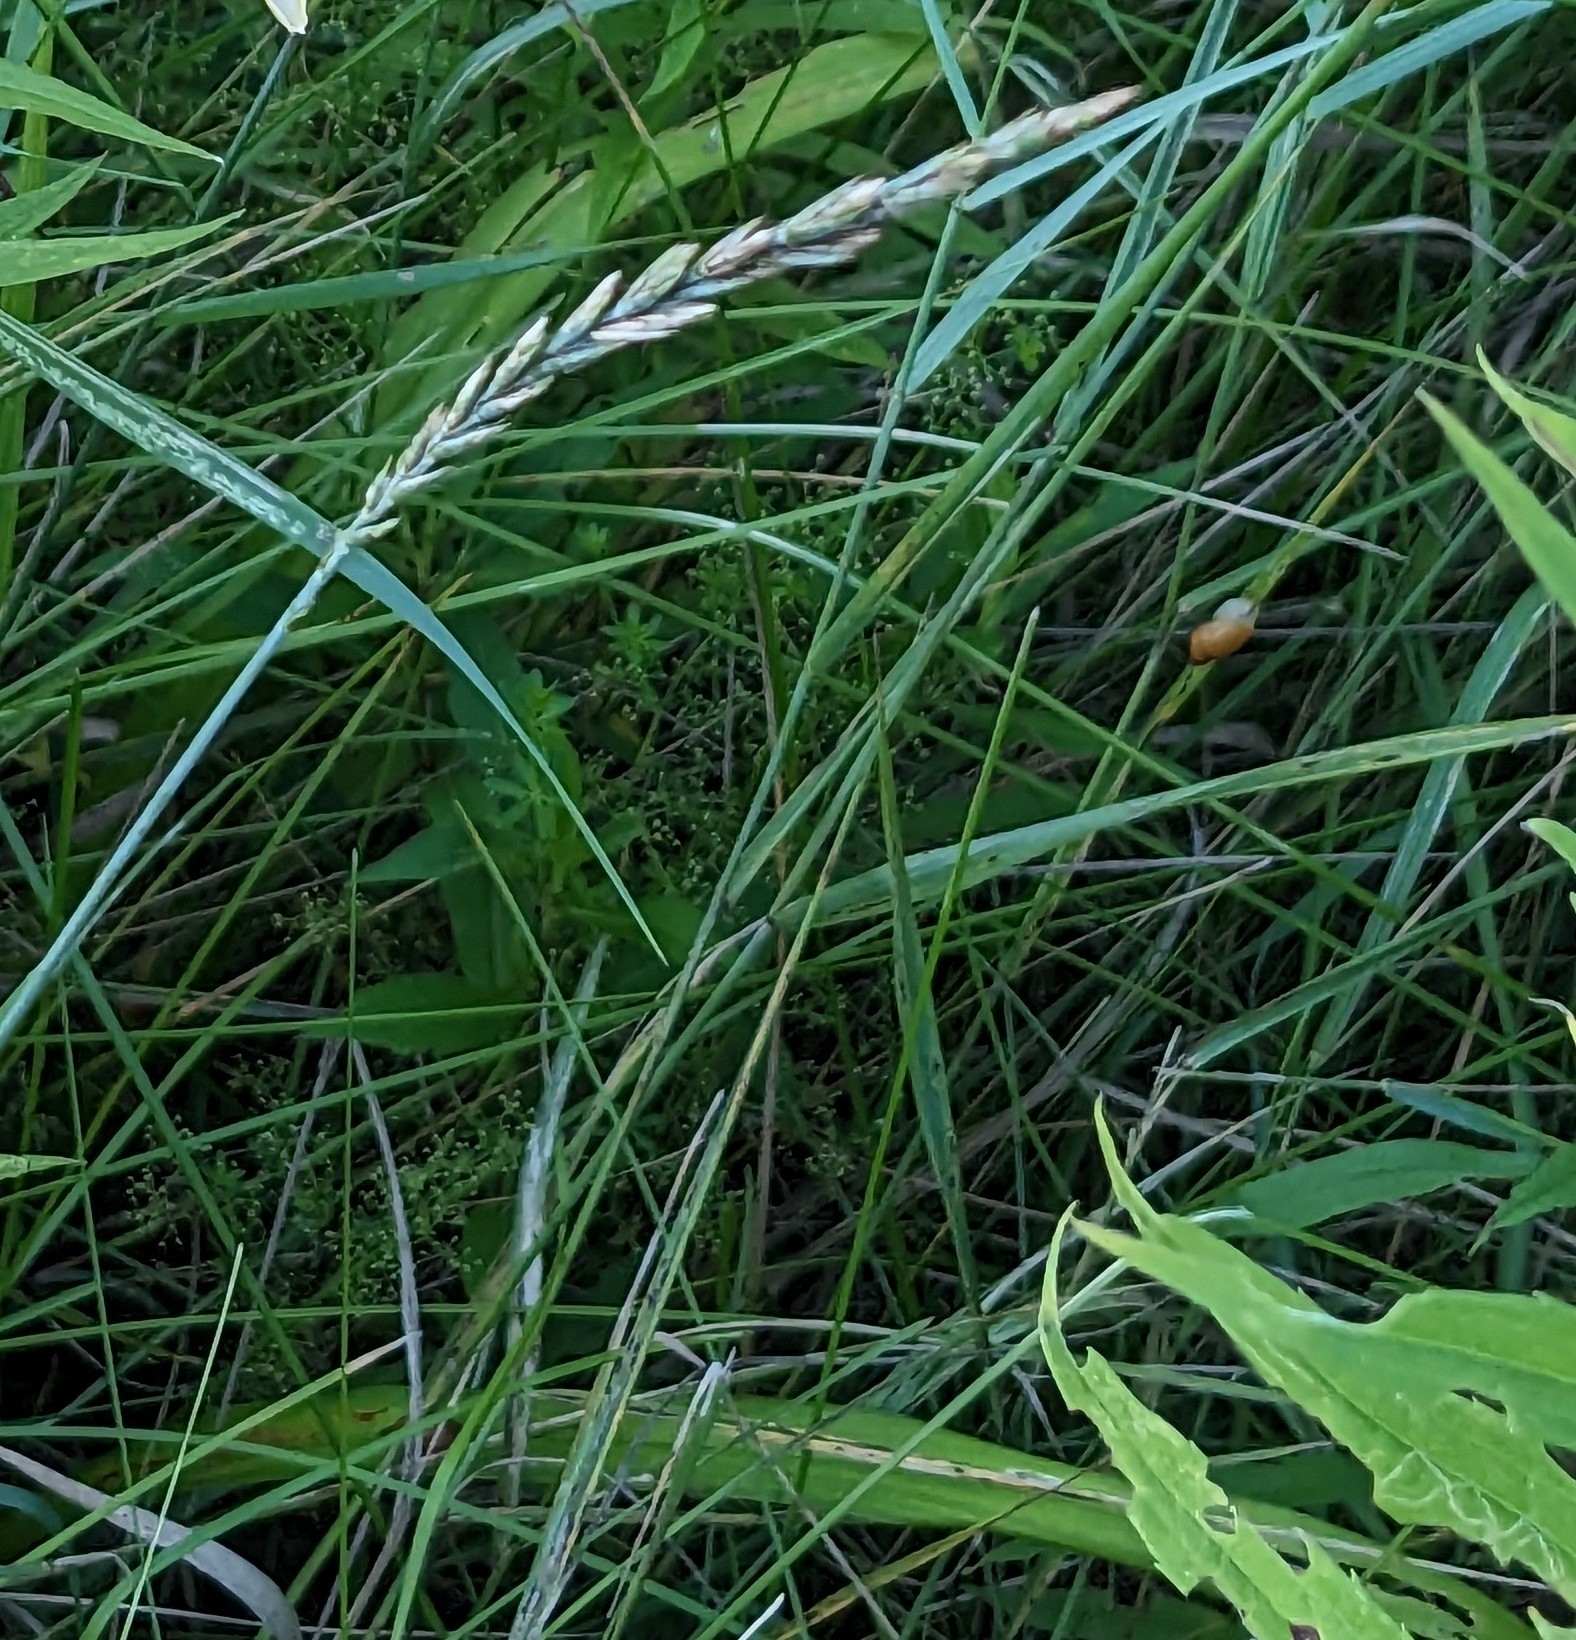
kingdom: Plantae
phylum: Tracheophyta
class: Liliopsida
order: Poales
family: Poaceae
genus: Elymus
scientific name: Elymus repens
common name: Quackgrass
